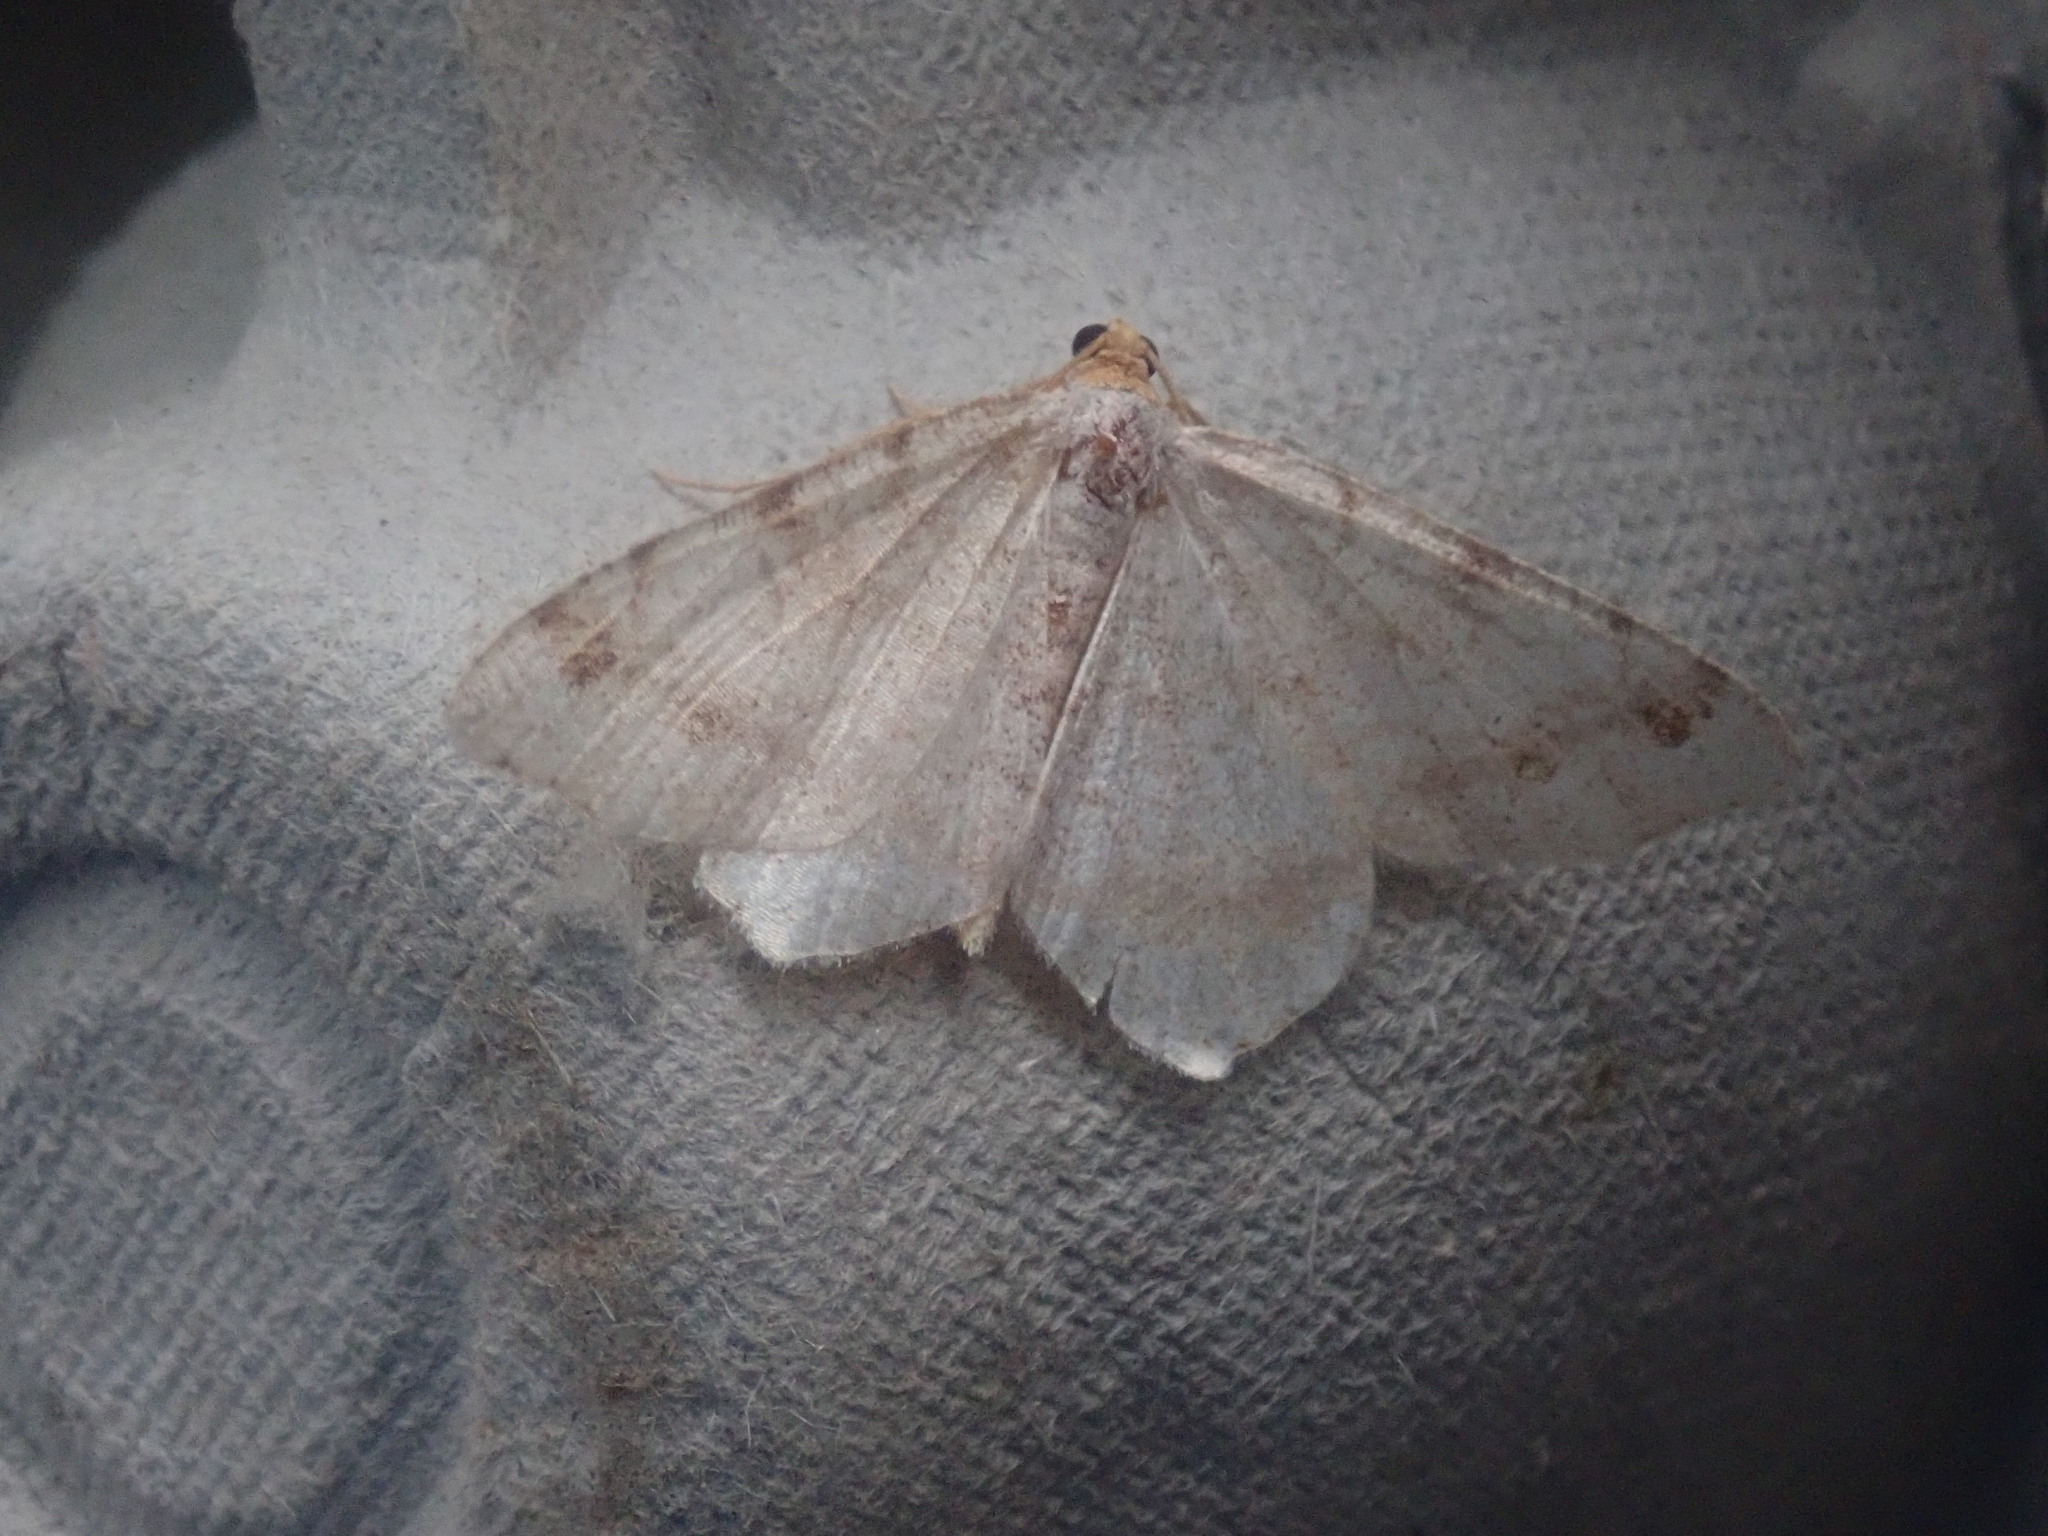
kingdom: Animalia
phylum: Arthropoda
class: Insecta
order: Lepidoptera
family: Geometridae
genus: Macaria
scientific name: Macaria bisignata
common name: Red-headed inchworm
